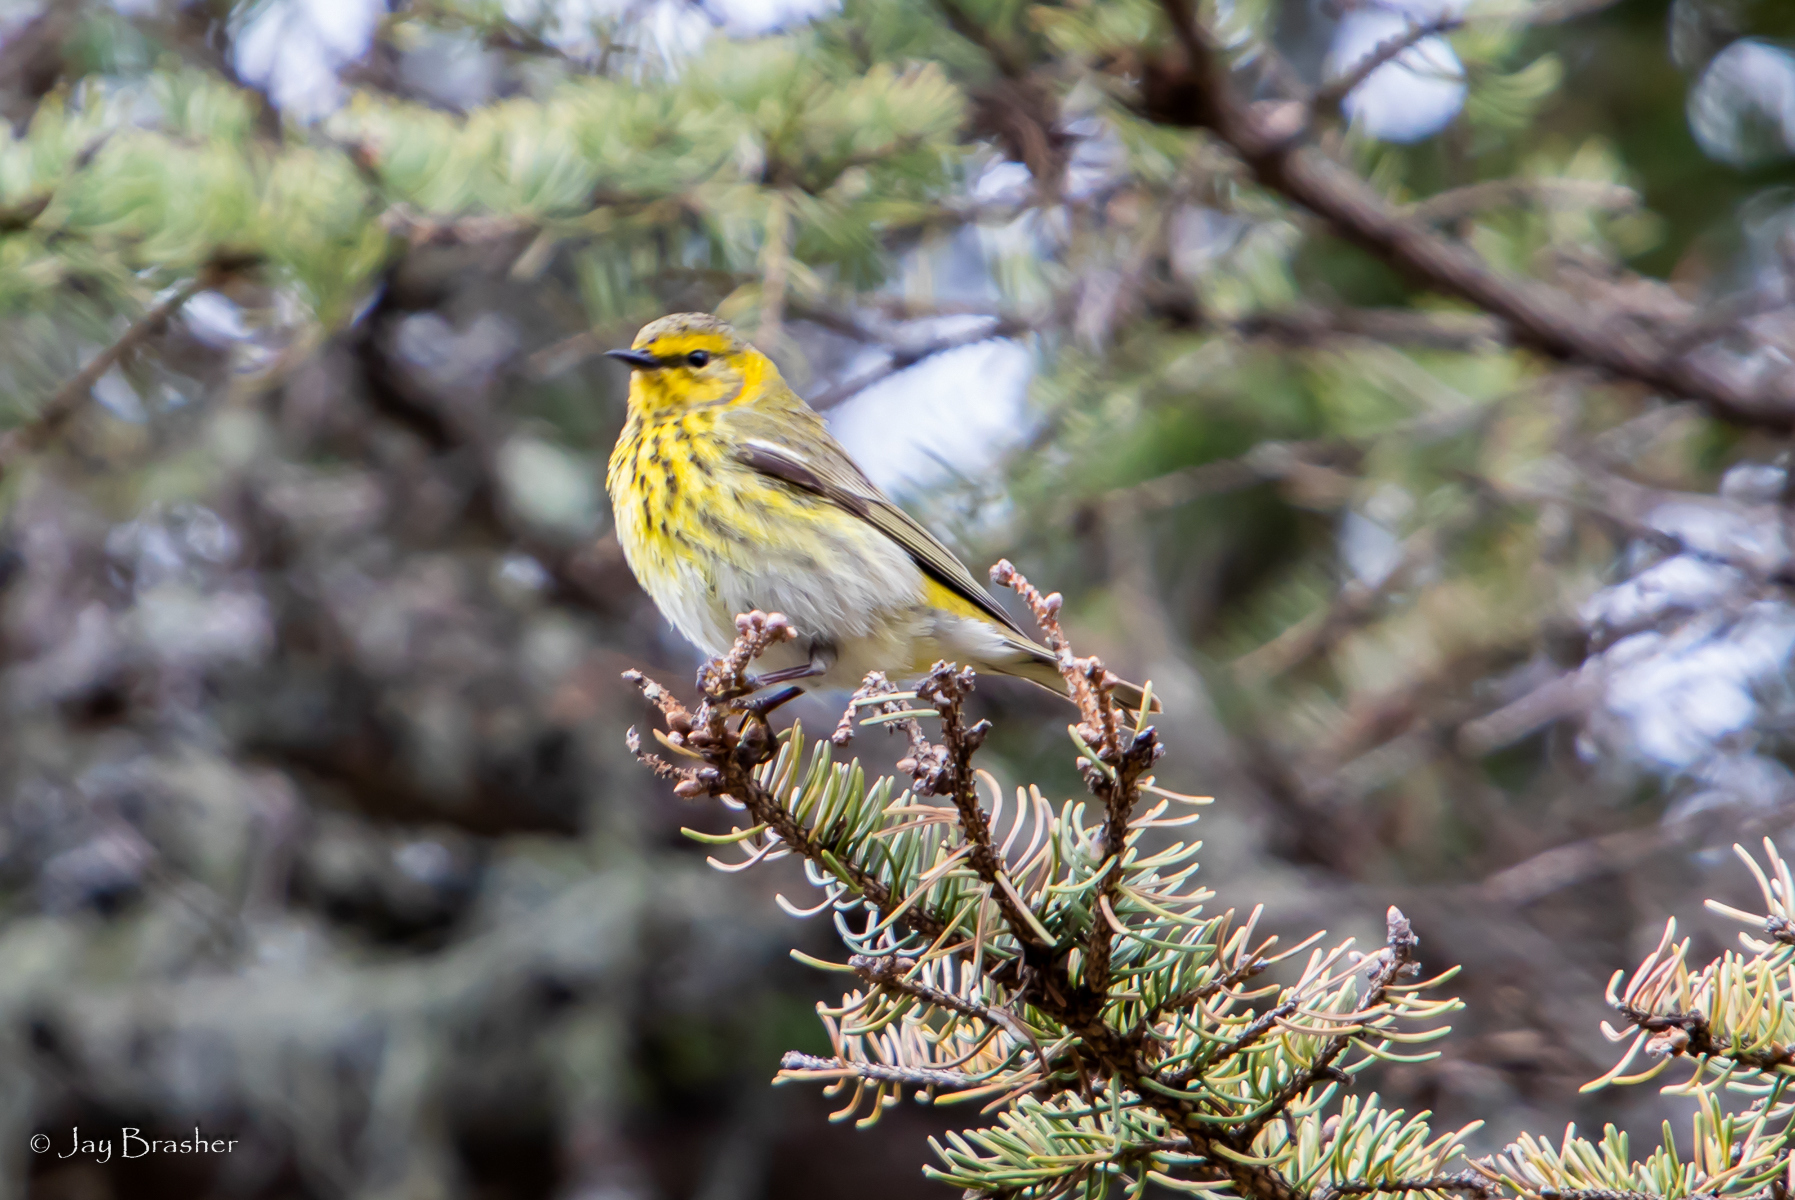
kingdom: Animalia
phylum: Chordata
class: Aves
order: Passeriformes
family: Parulidae
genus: Setophaga
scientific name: Setophaga tigrina
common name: Cape may warbler
